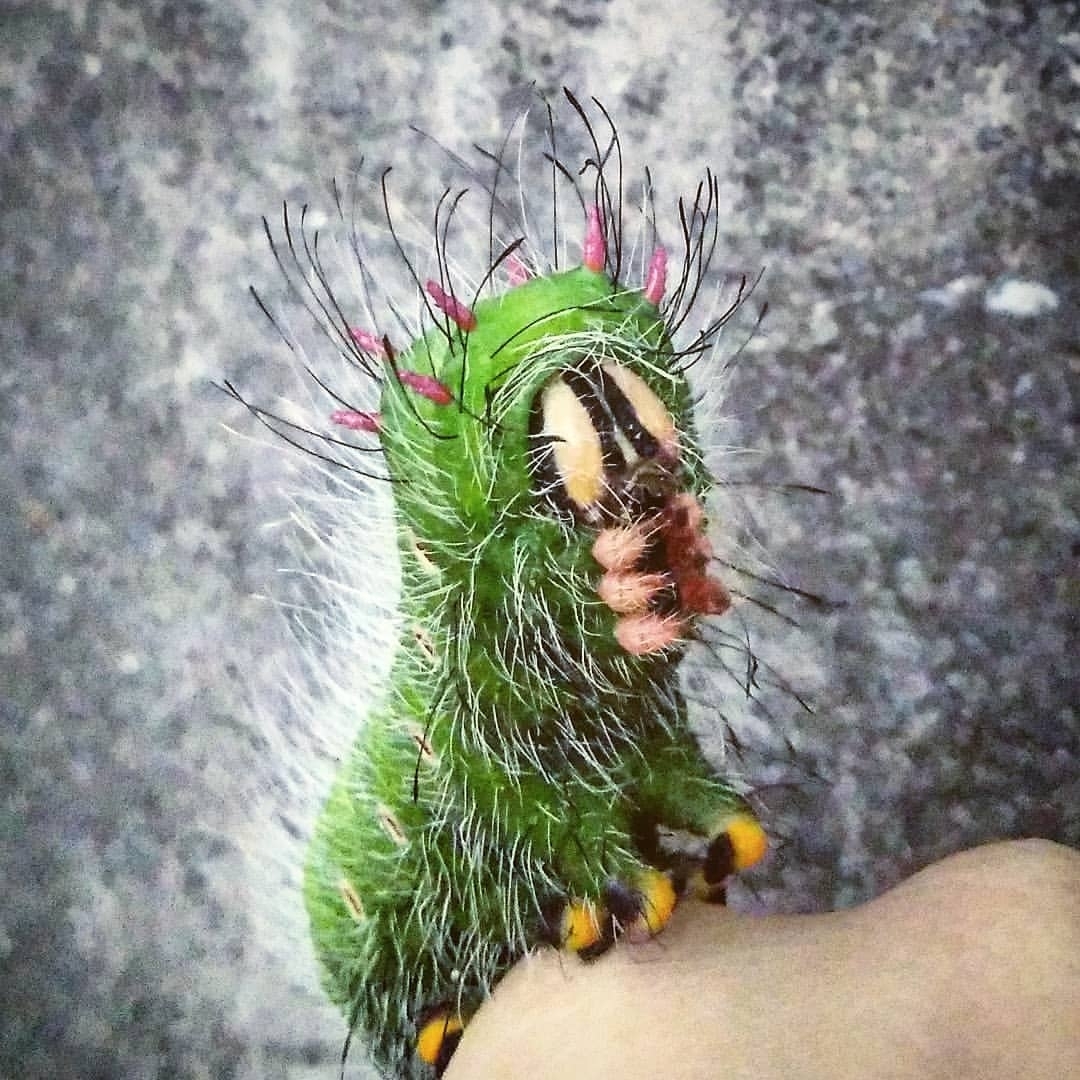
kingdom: Animalia
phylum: Arthropoda
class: Insecta
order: Lepidoptera
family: Saturniidae
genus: Eacles
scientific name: Eacles imperialis
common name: Imperial moth
